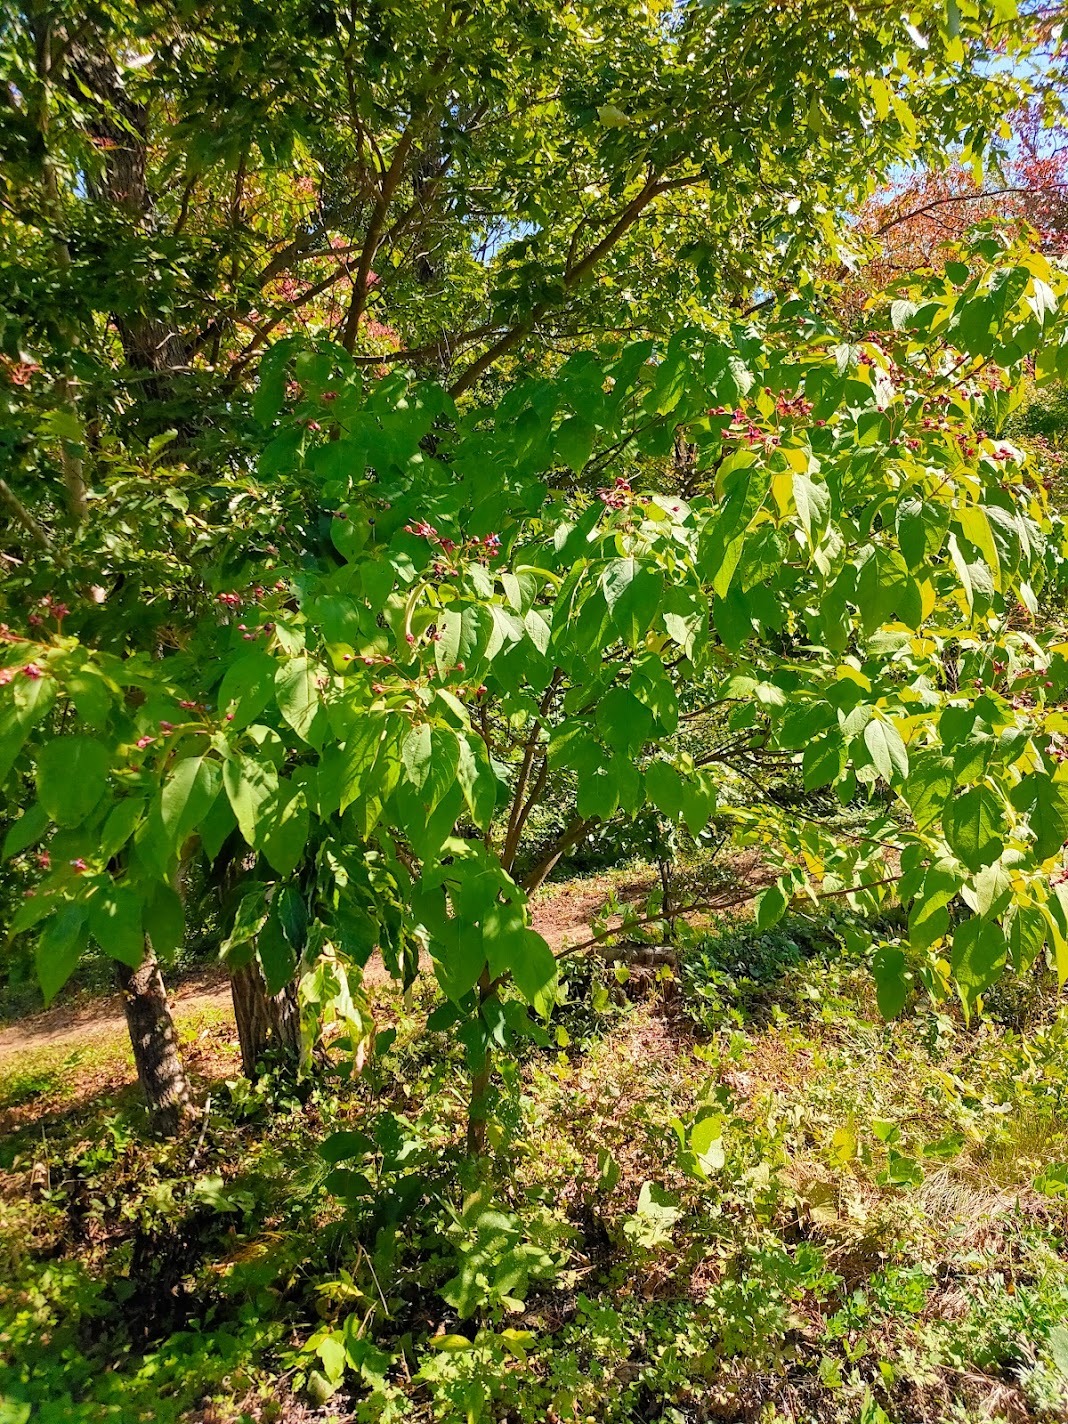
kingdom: Plantae
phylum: Tracheophyta
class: Magnoliopsida
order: Lamiales
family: Lamiaceae
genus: Clerodendrum
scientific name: Clerodendrum trichotomum
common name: Harlequin glorybower
